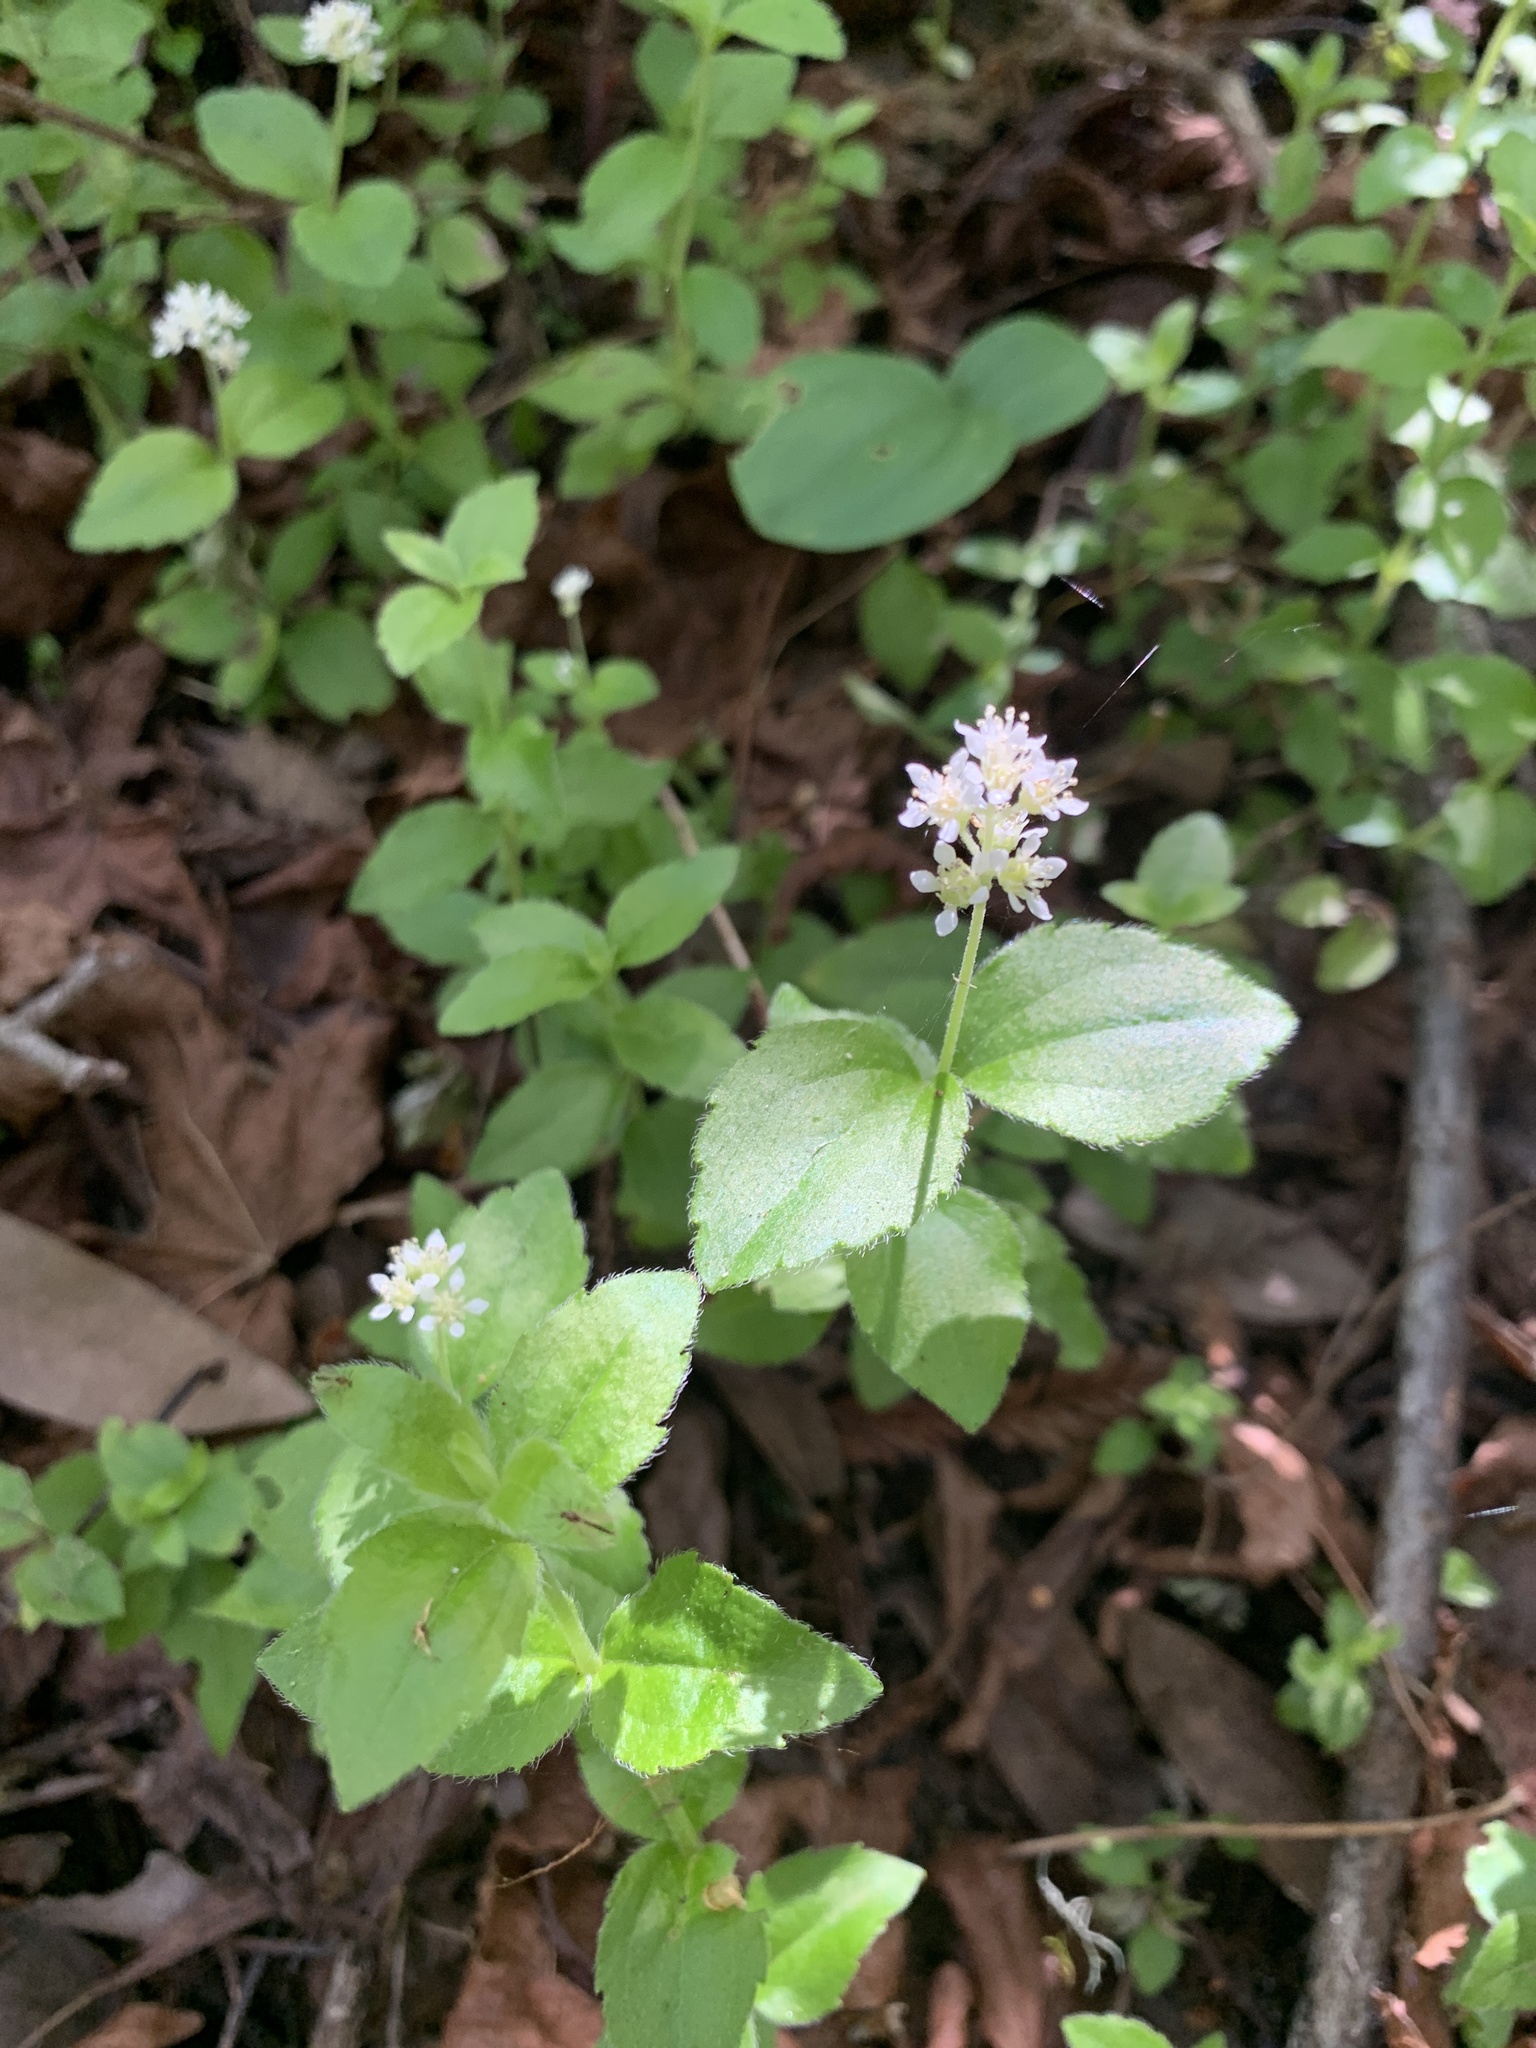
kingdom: Plantae
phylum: Tracheophyta
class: Magnoliopsida
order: Cornales
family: Hydrangeaceae
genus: Whipplea
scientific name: Whipplea modesta
